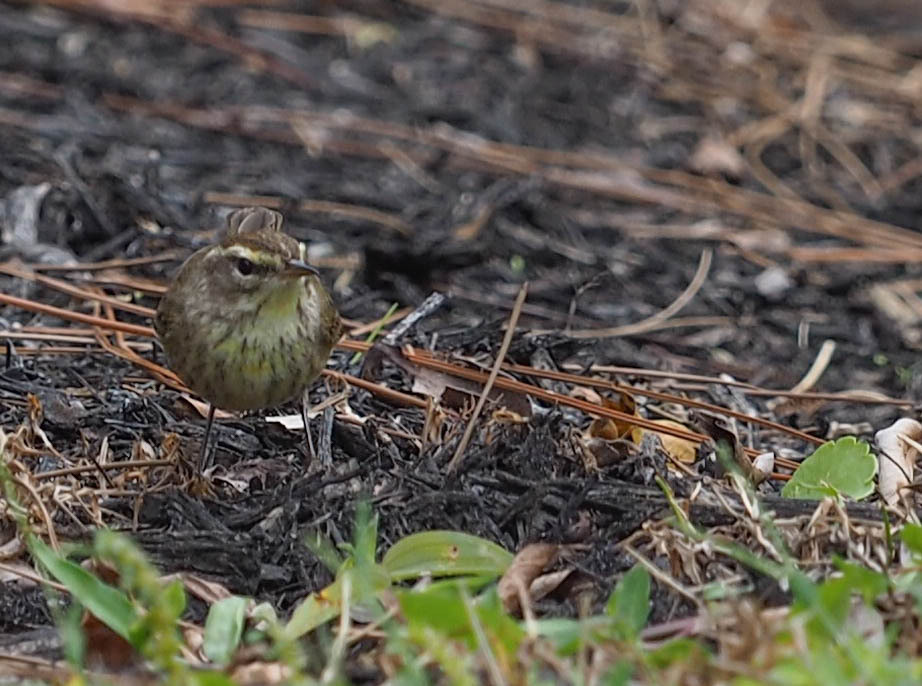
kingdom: Animalia
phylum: Chordata
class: Aves
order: Passeriformes
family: Parulidae
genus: Setophaga
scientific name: Setophaga palmarum
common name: Palm warbler
